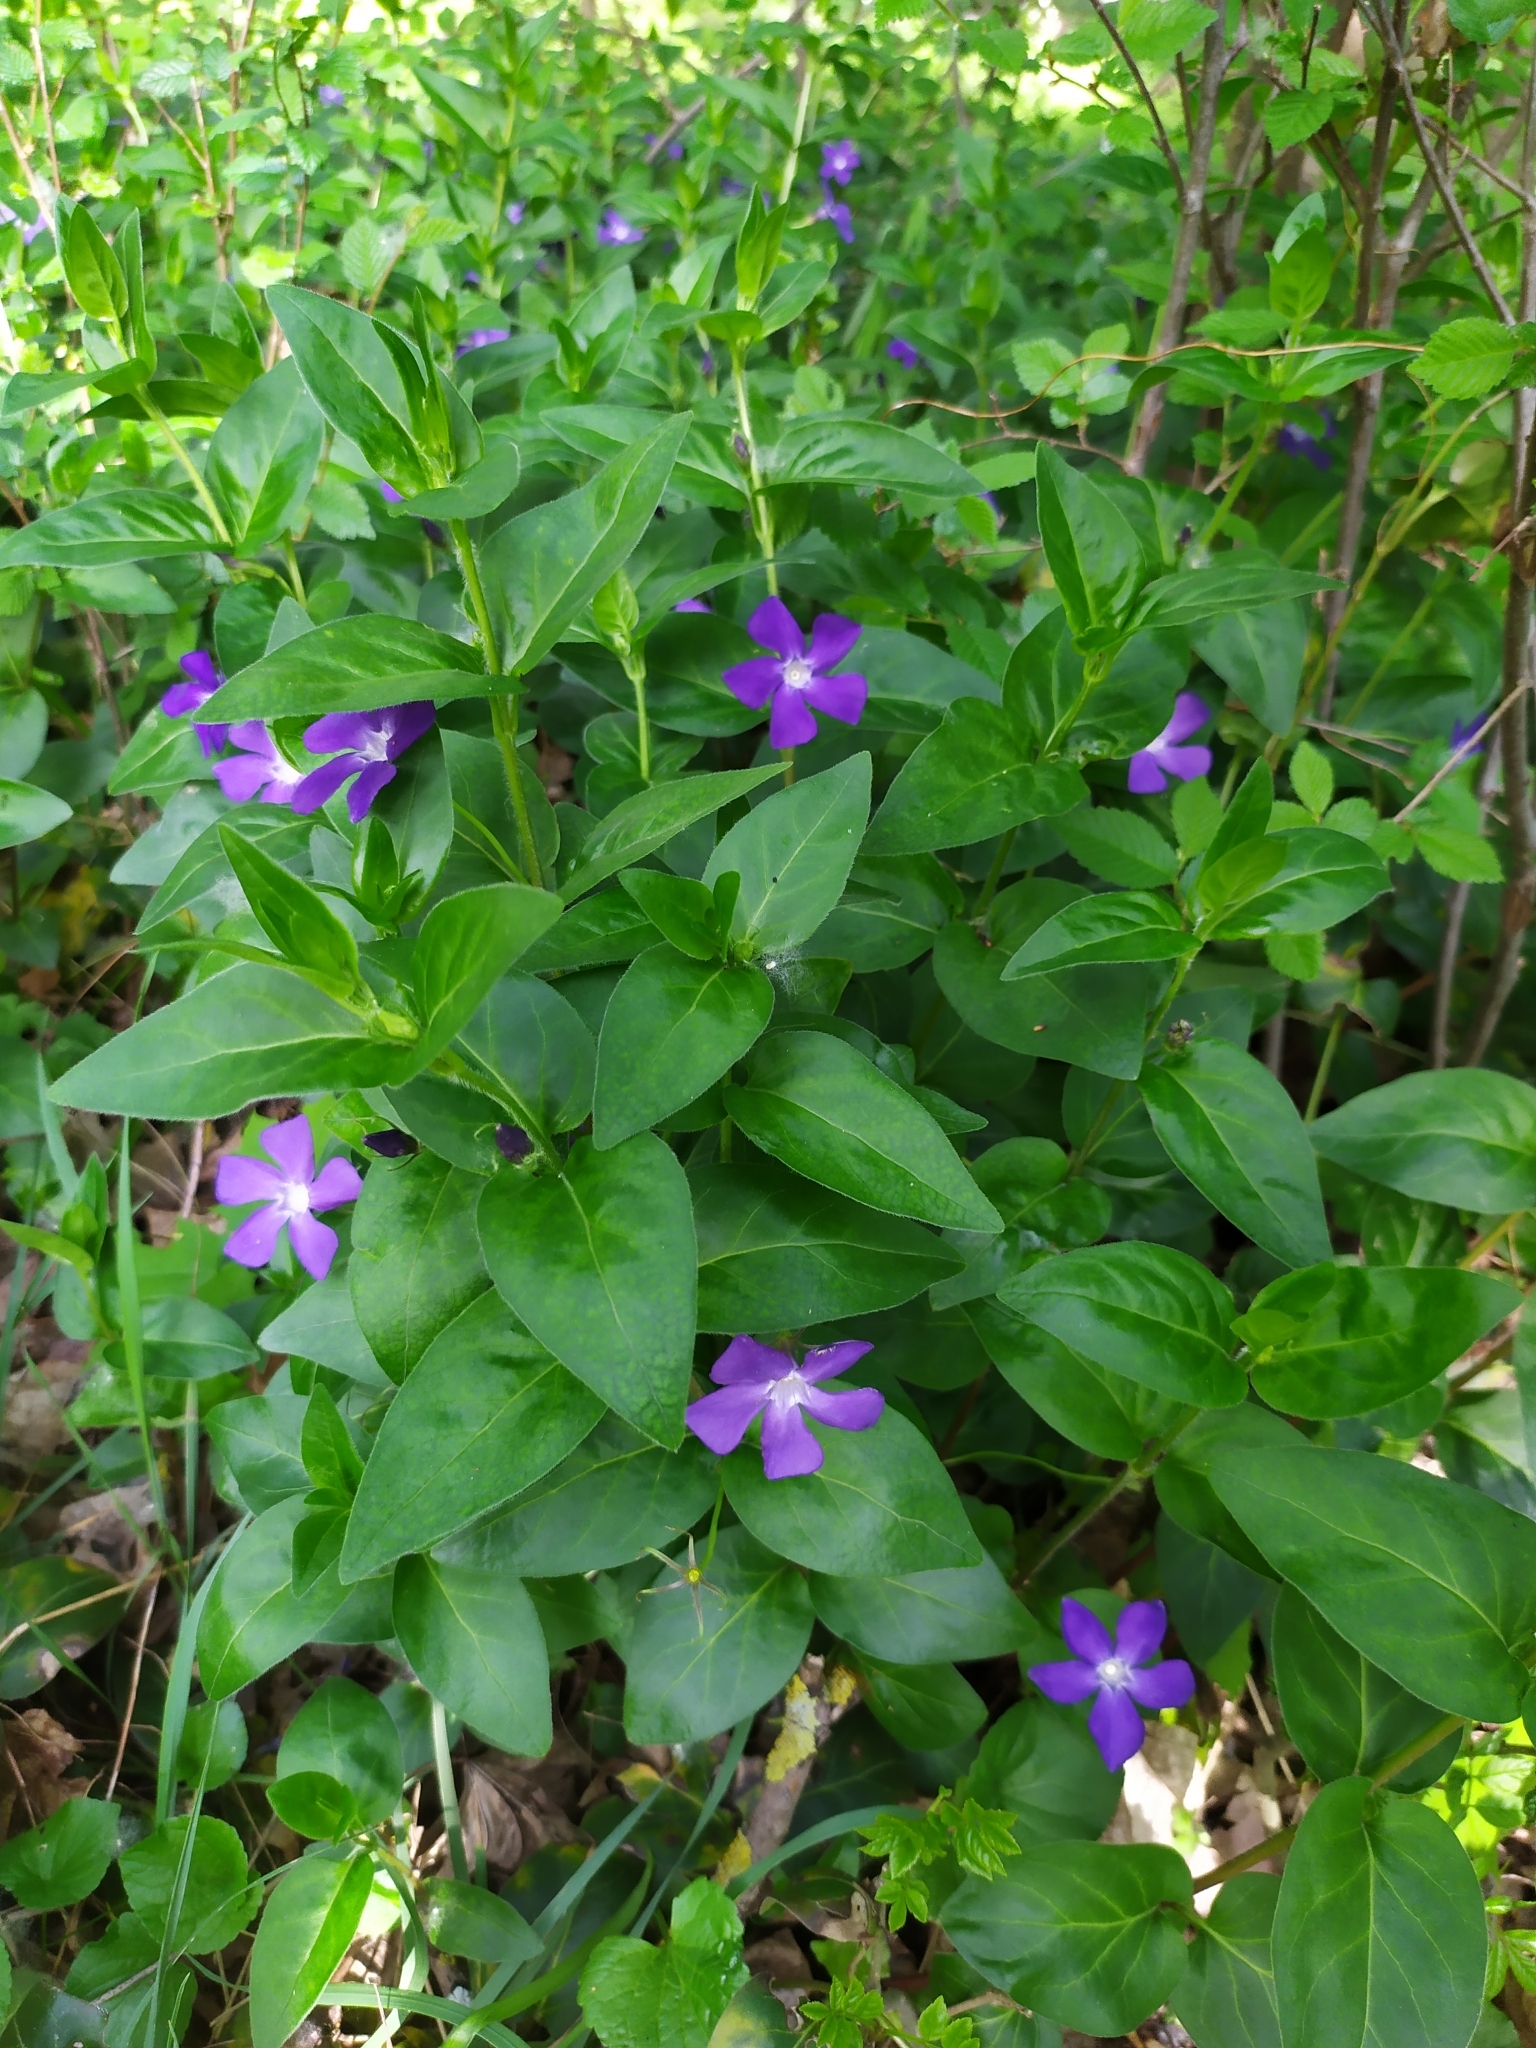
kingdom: Plantae
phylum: Tracheophyta
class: Magnoliopsida
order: Gentianales
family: Apocynaceae
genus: Vinca
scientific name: Vinca major
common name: Greater periwinkle
